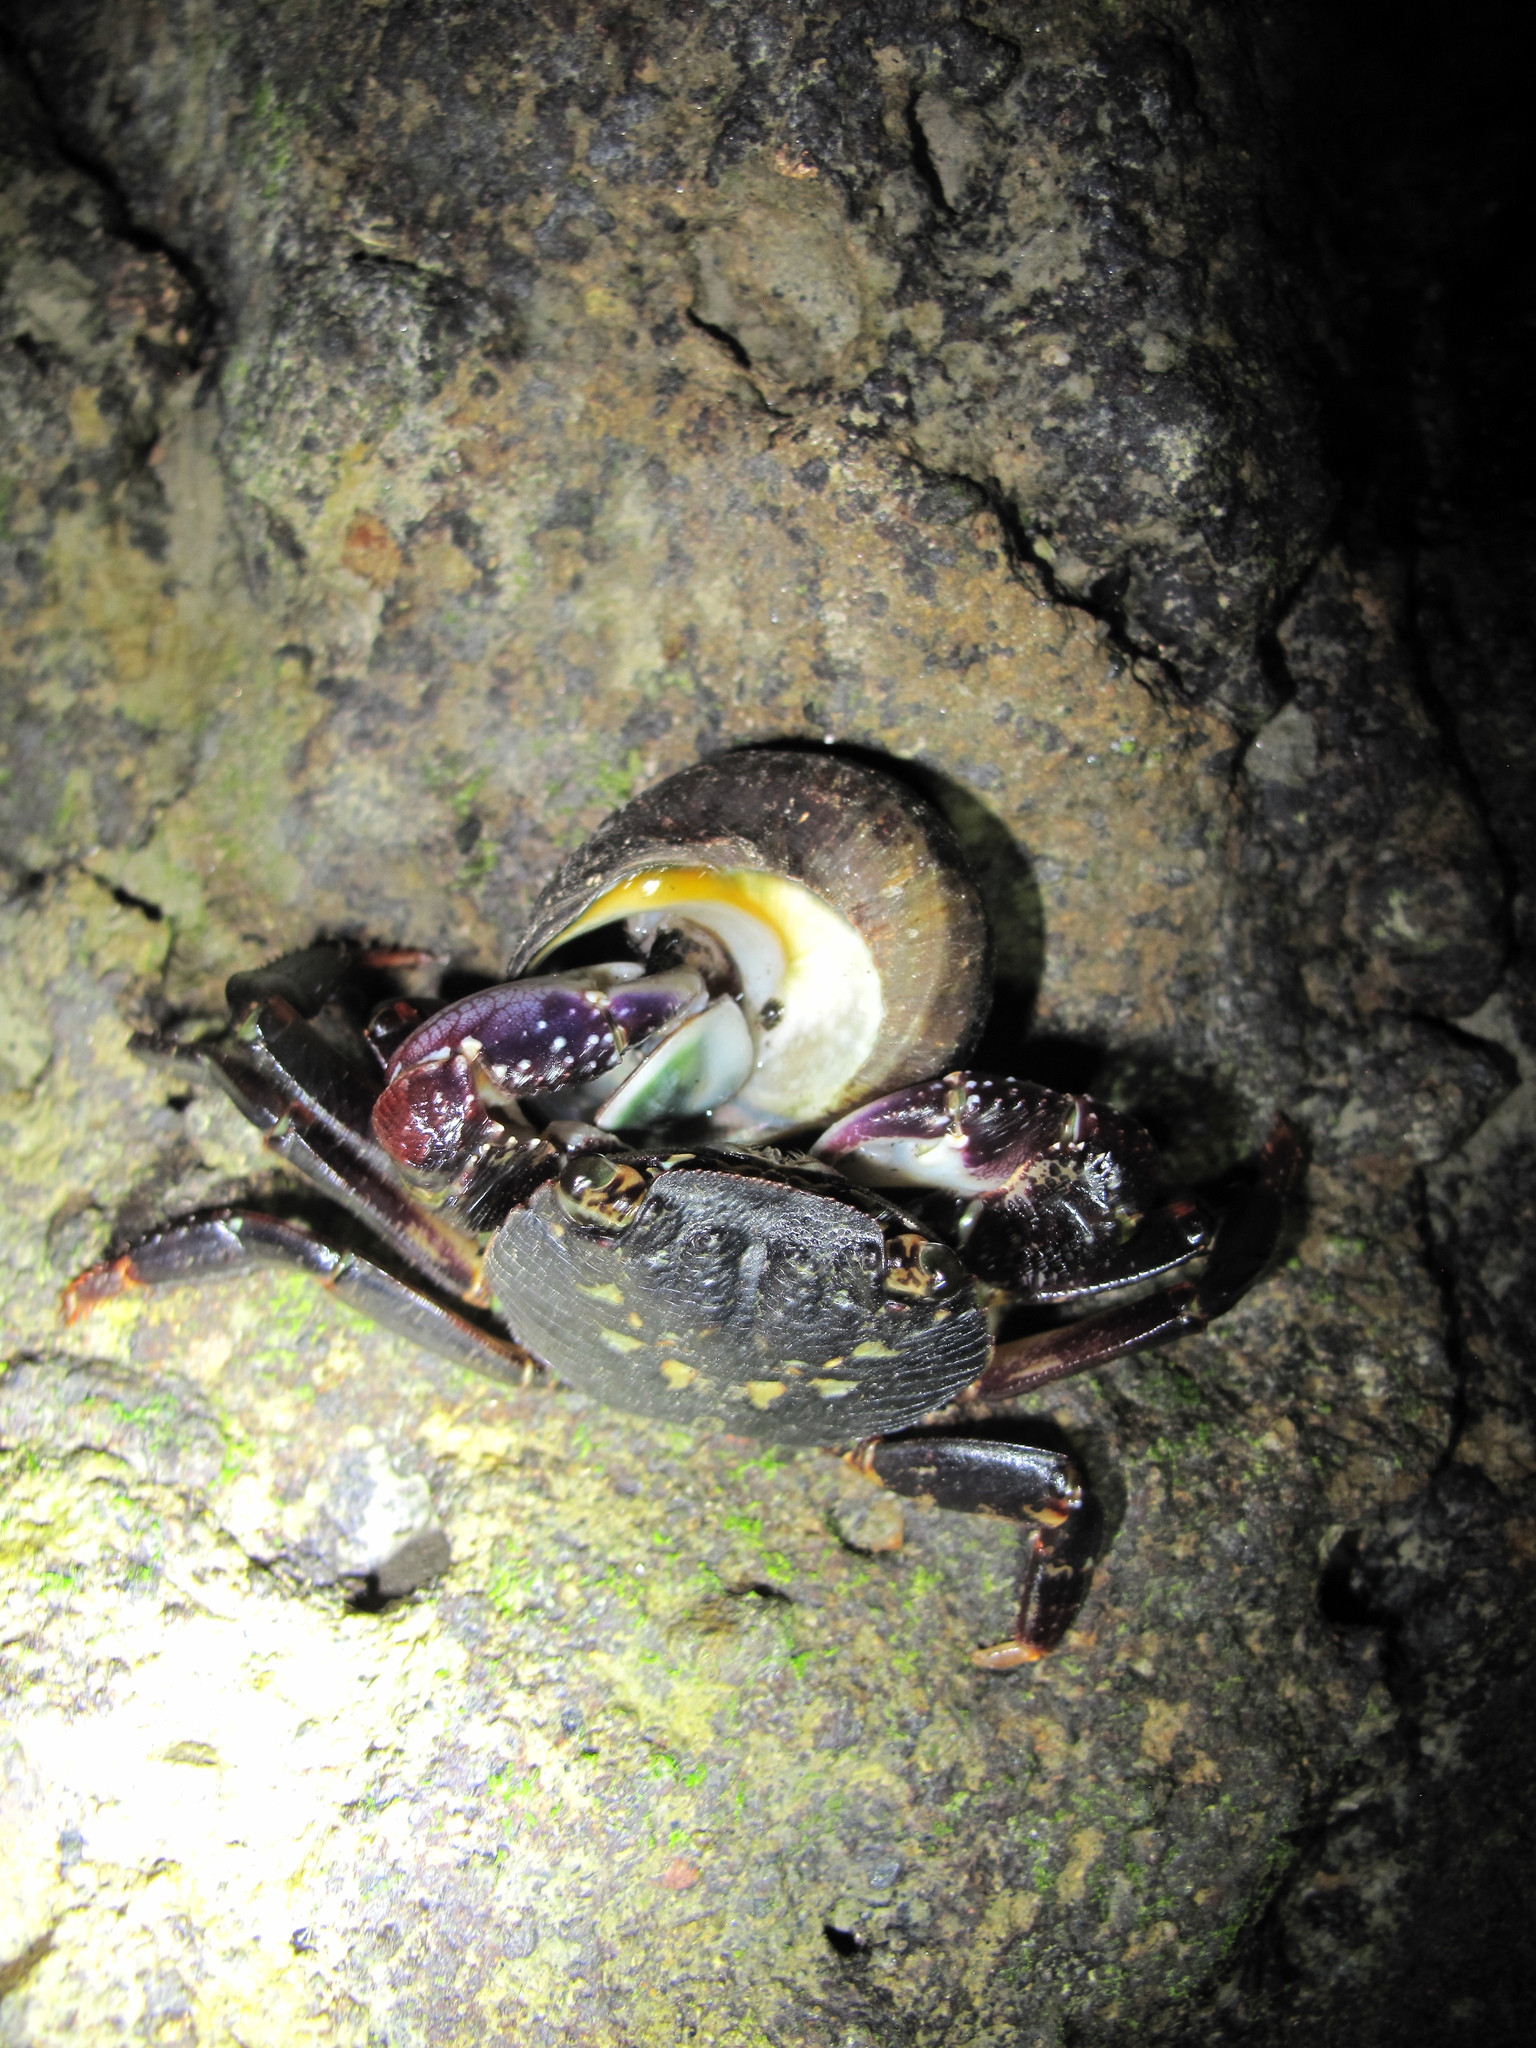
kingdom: Animalia
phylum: Mollusca
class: Gastropoda
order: Trochida
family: Turbinidae
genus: Lunella
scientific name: Lunella smaragda
